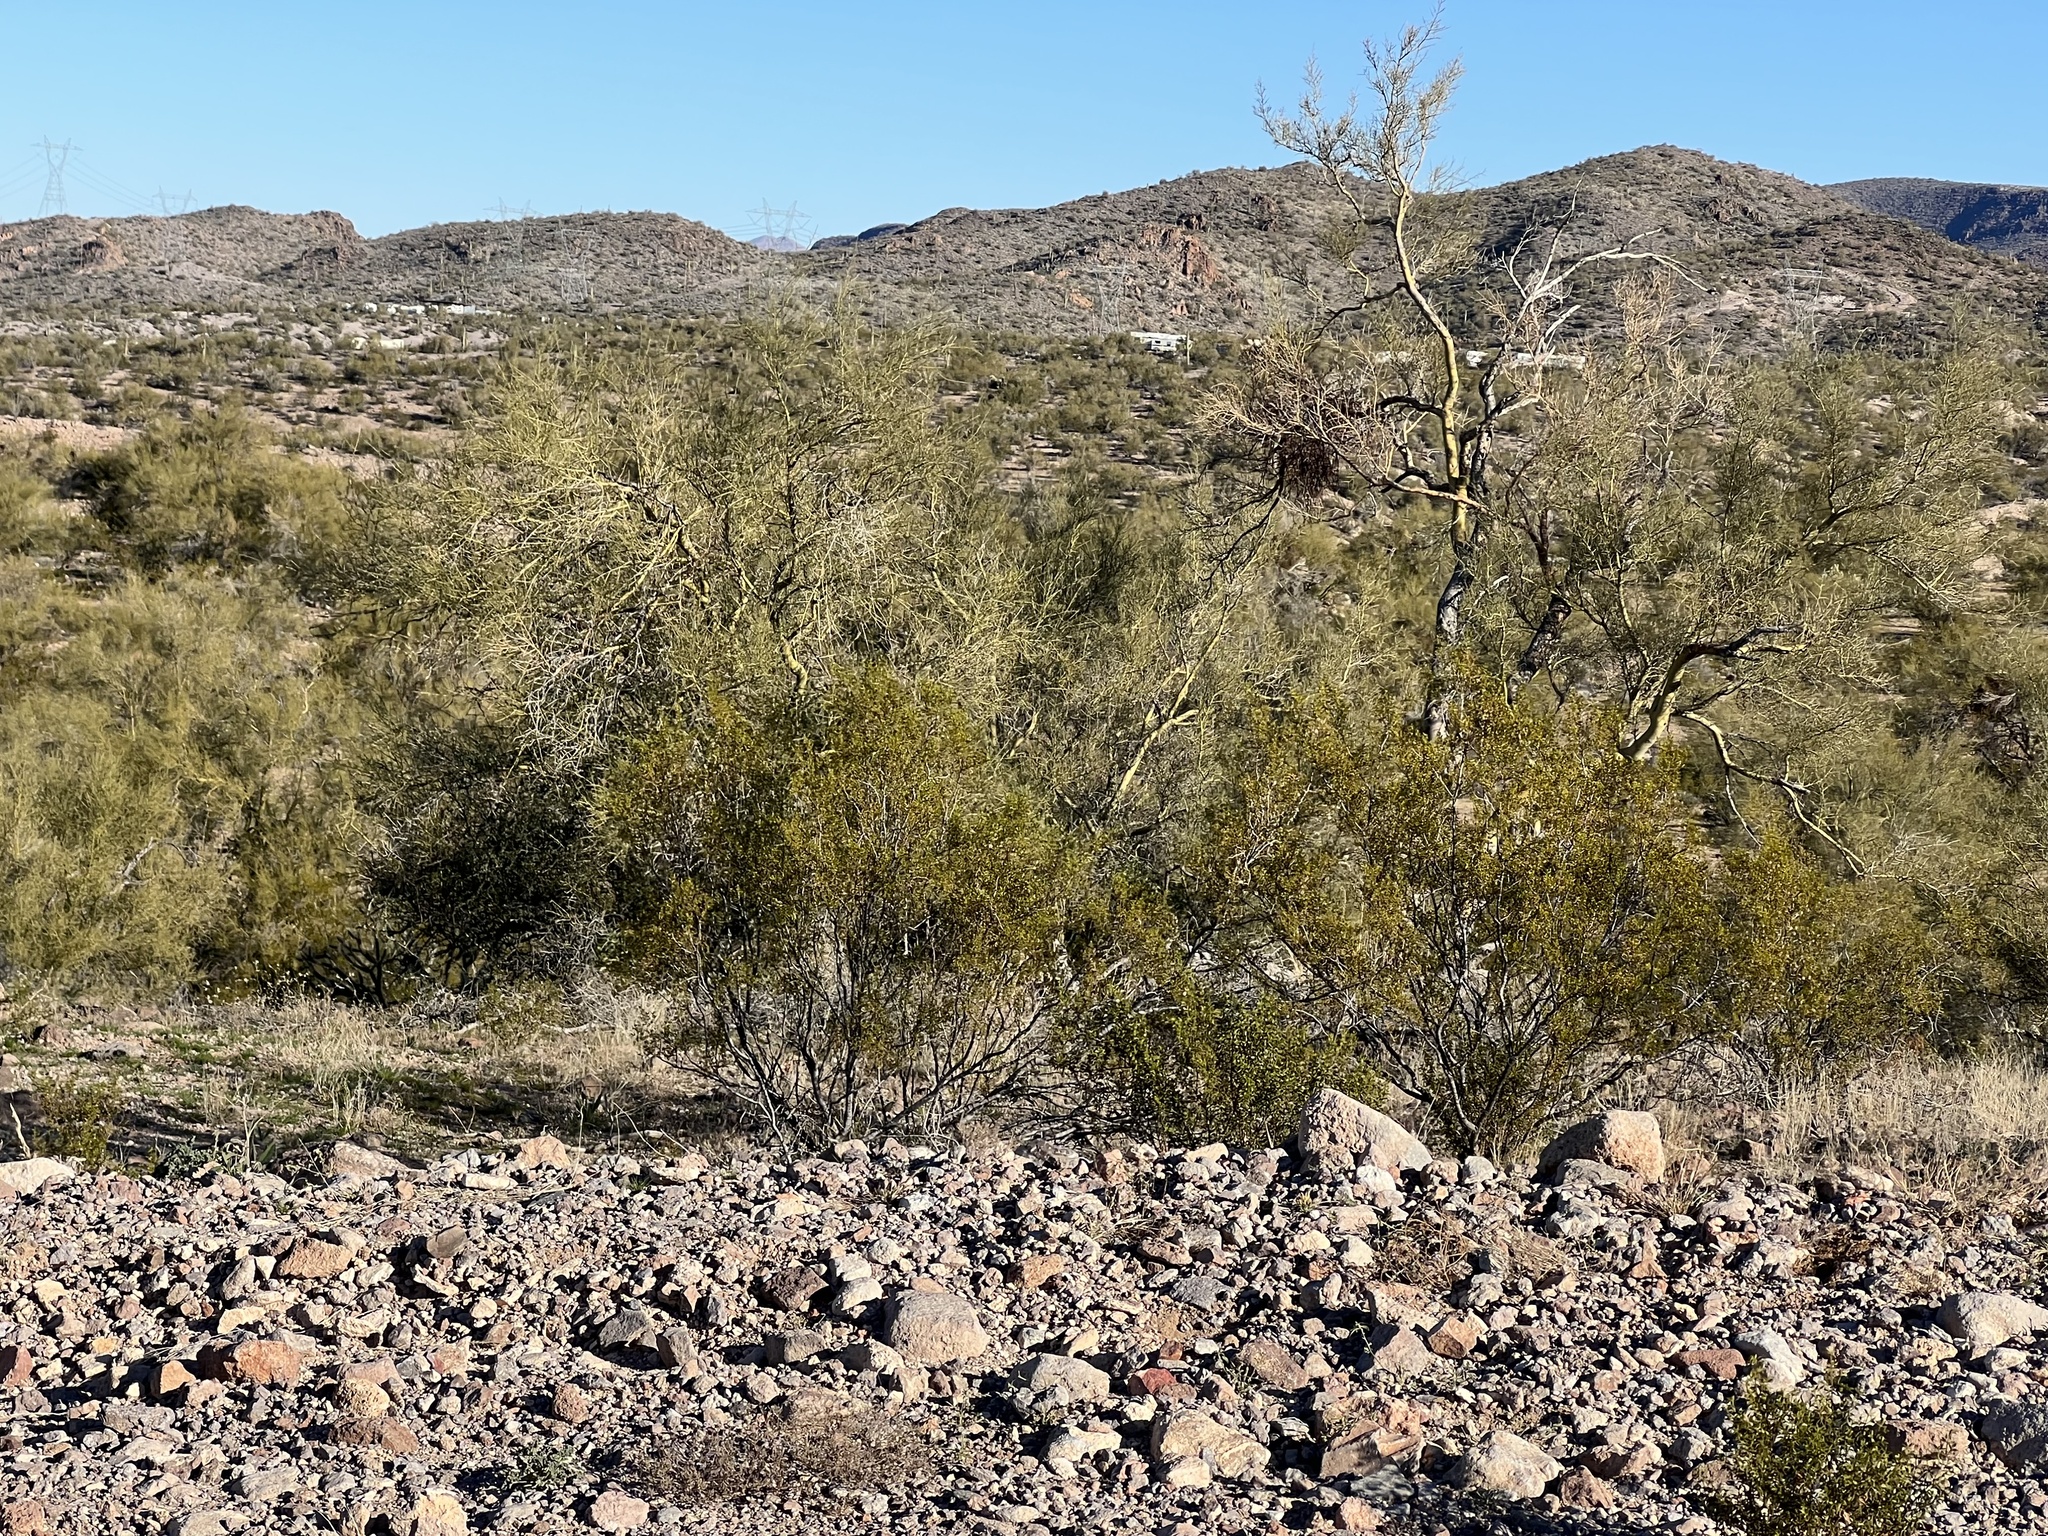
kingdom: Plantae
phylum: Tracheophyta
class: Magnoliopsida
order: Zygophyllales
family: Zygophyllaceae
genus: Larrea
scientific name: Larrea tridentata
